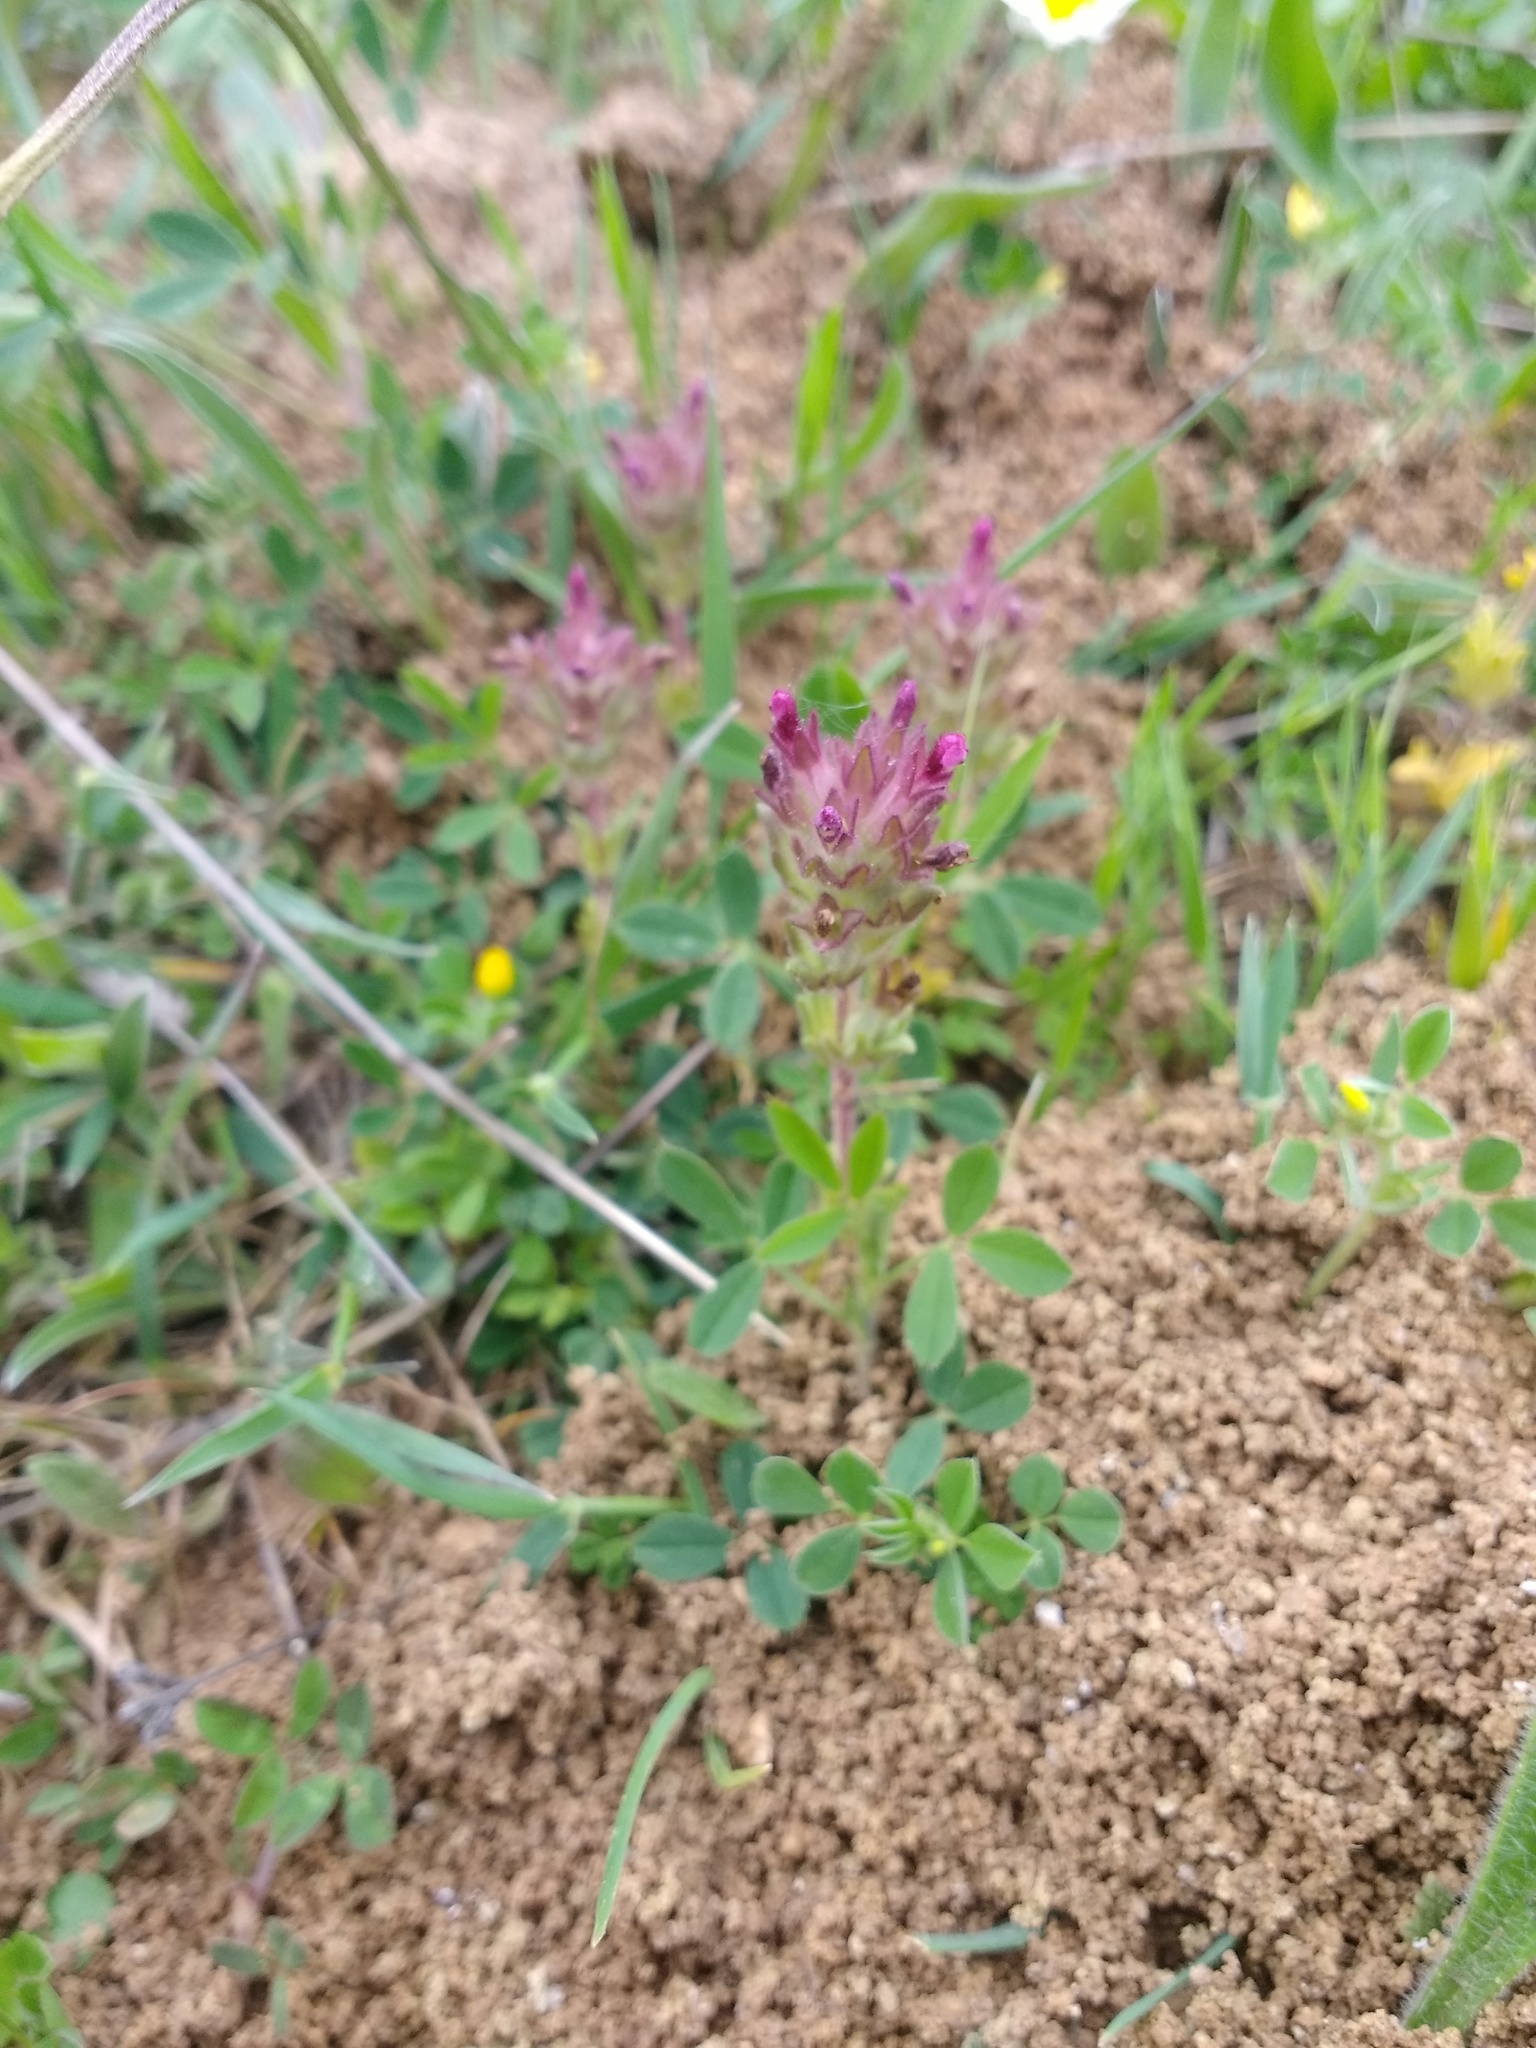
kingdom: Plantae
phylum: Tracheophyta
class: Magnoliopsida
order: Lamiales
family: Orobanchaceae
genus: Parentucellia
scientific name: Parentucellia latifolia
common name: Broadleaf glandweed
